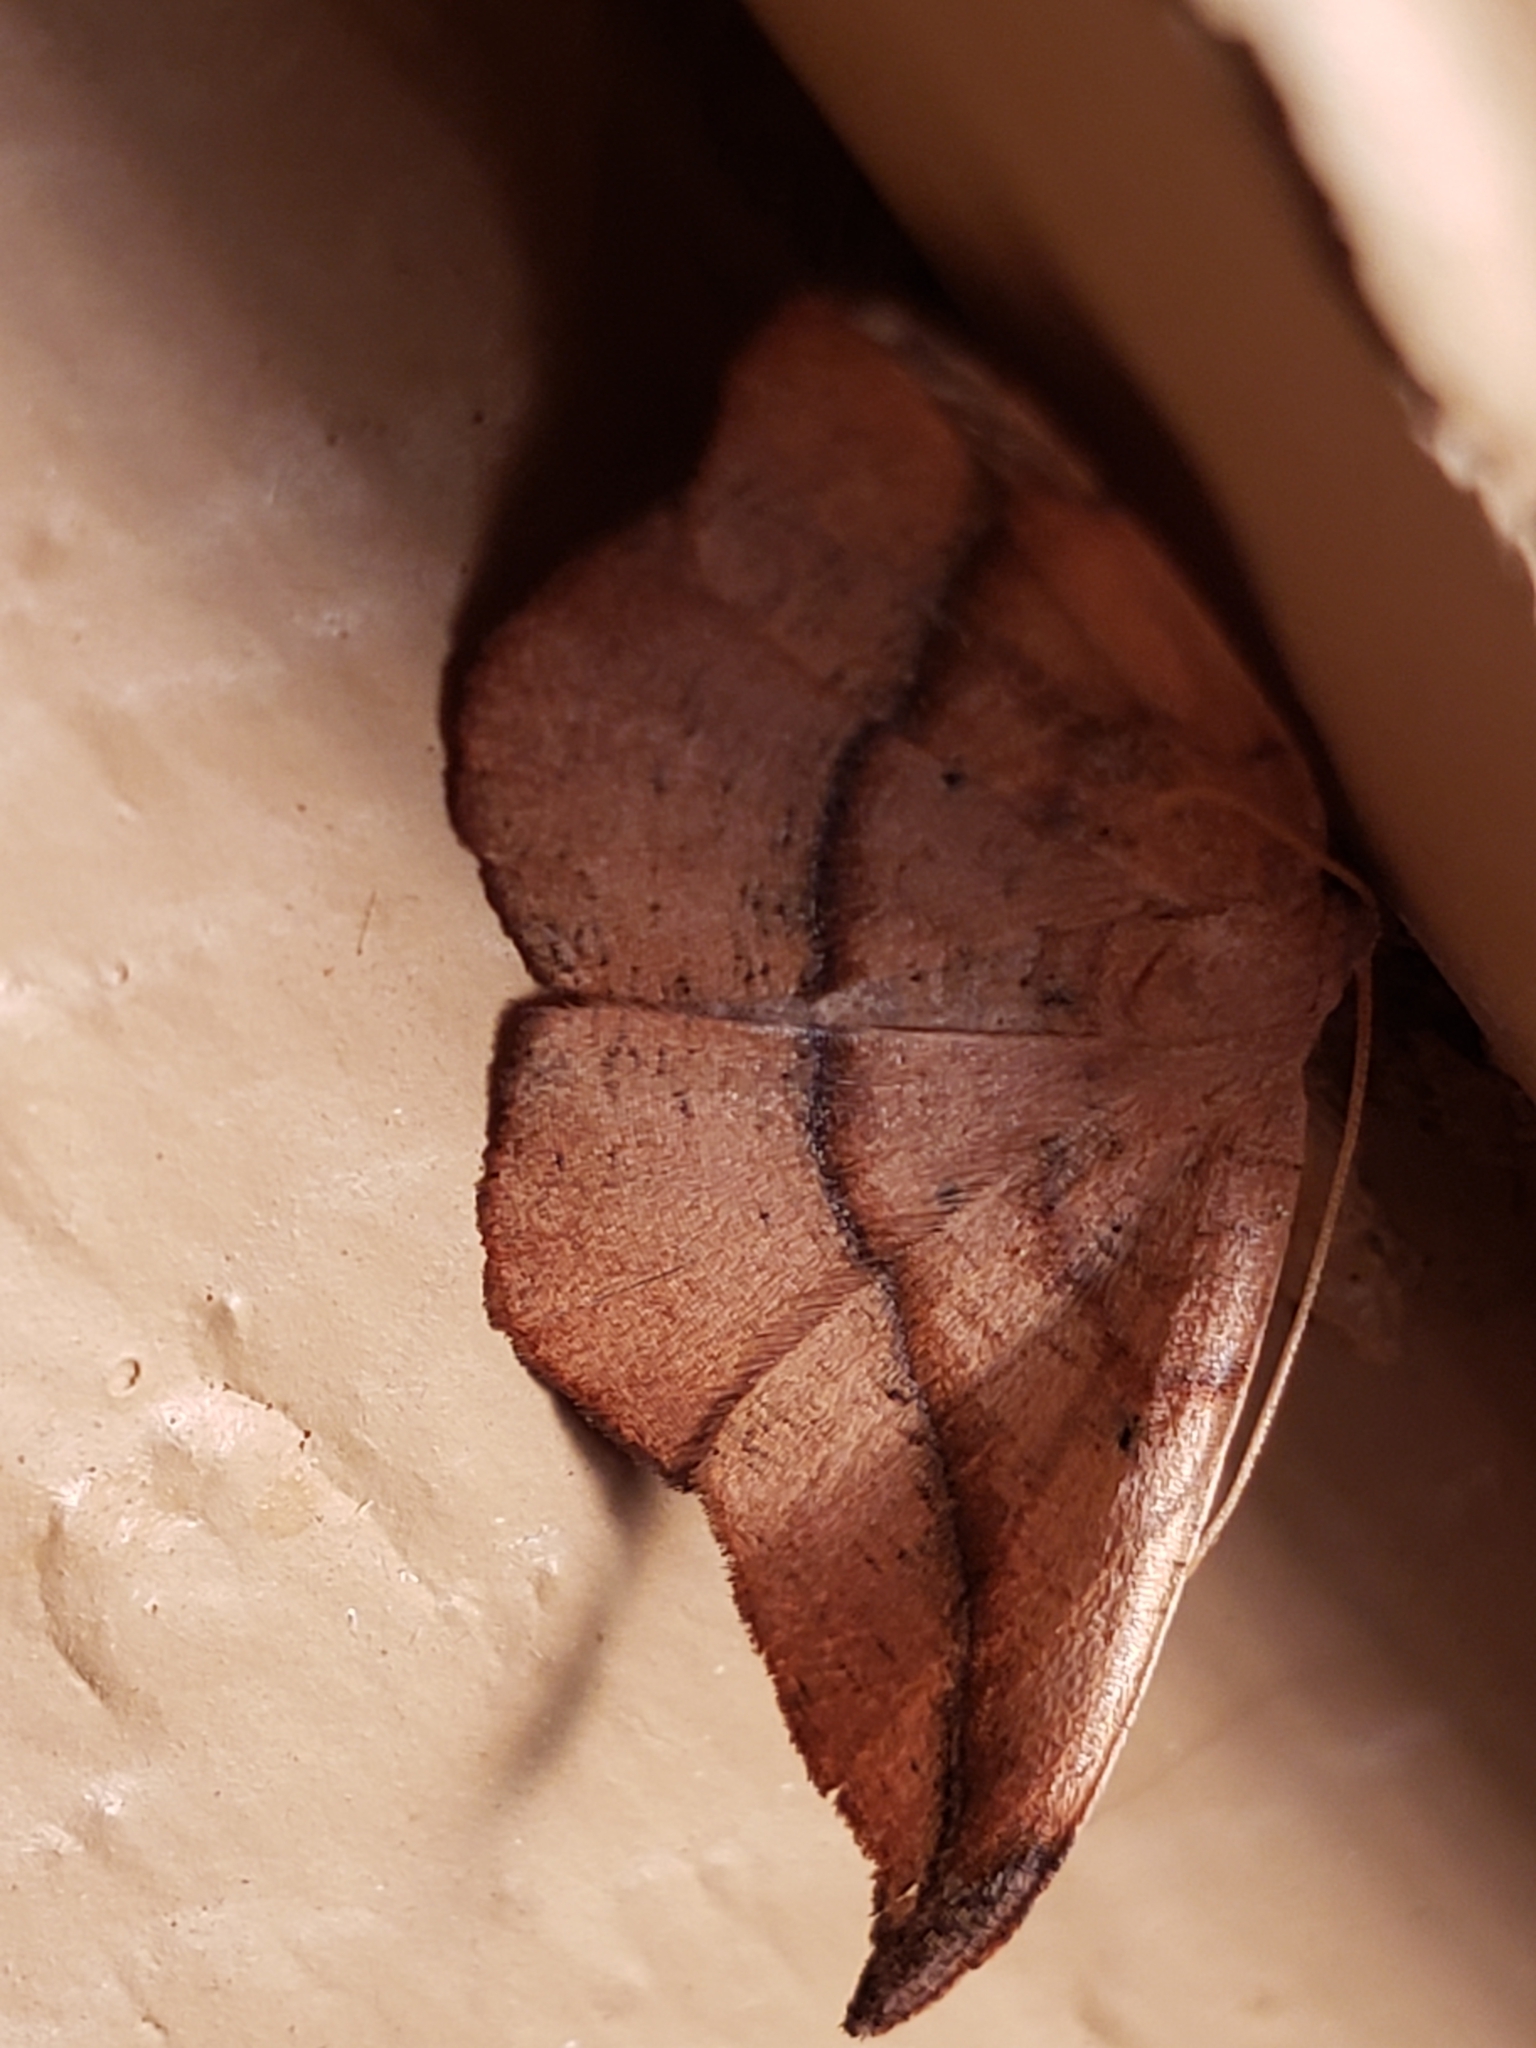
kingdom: Animalia
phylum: Arthropoda
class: Insecta
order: Lepidoptera
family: Geometridae
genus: Patalene
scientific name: Patalene olyzonaria
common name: Juniper geometer moth
